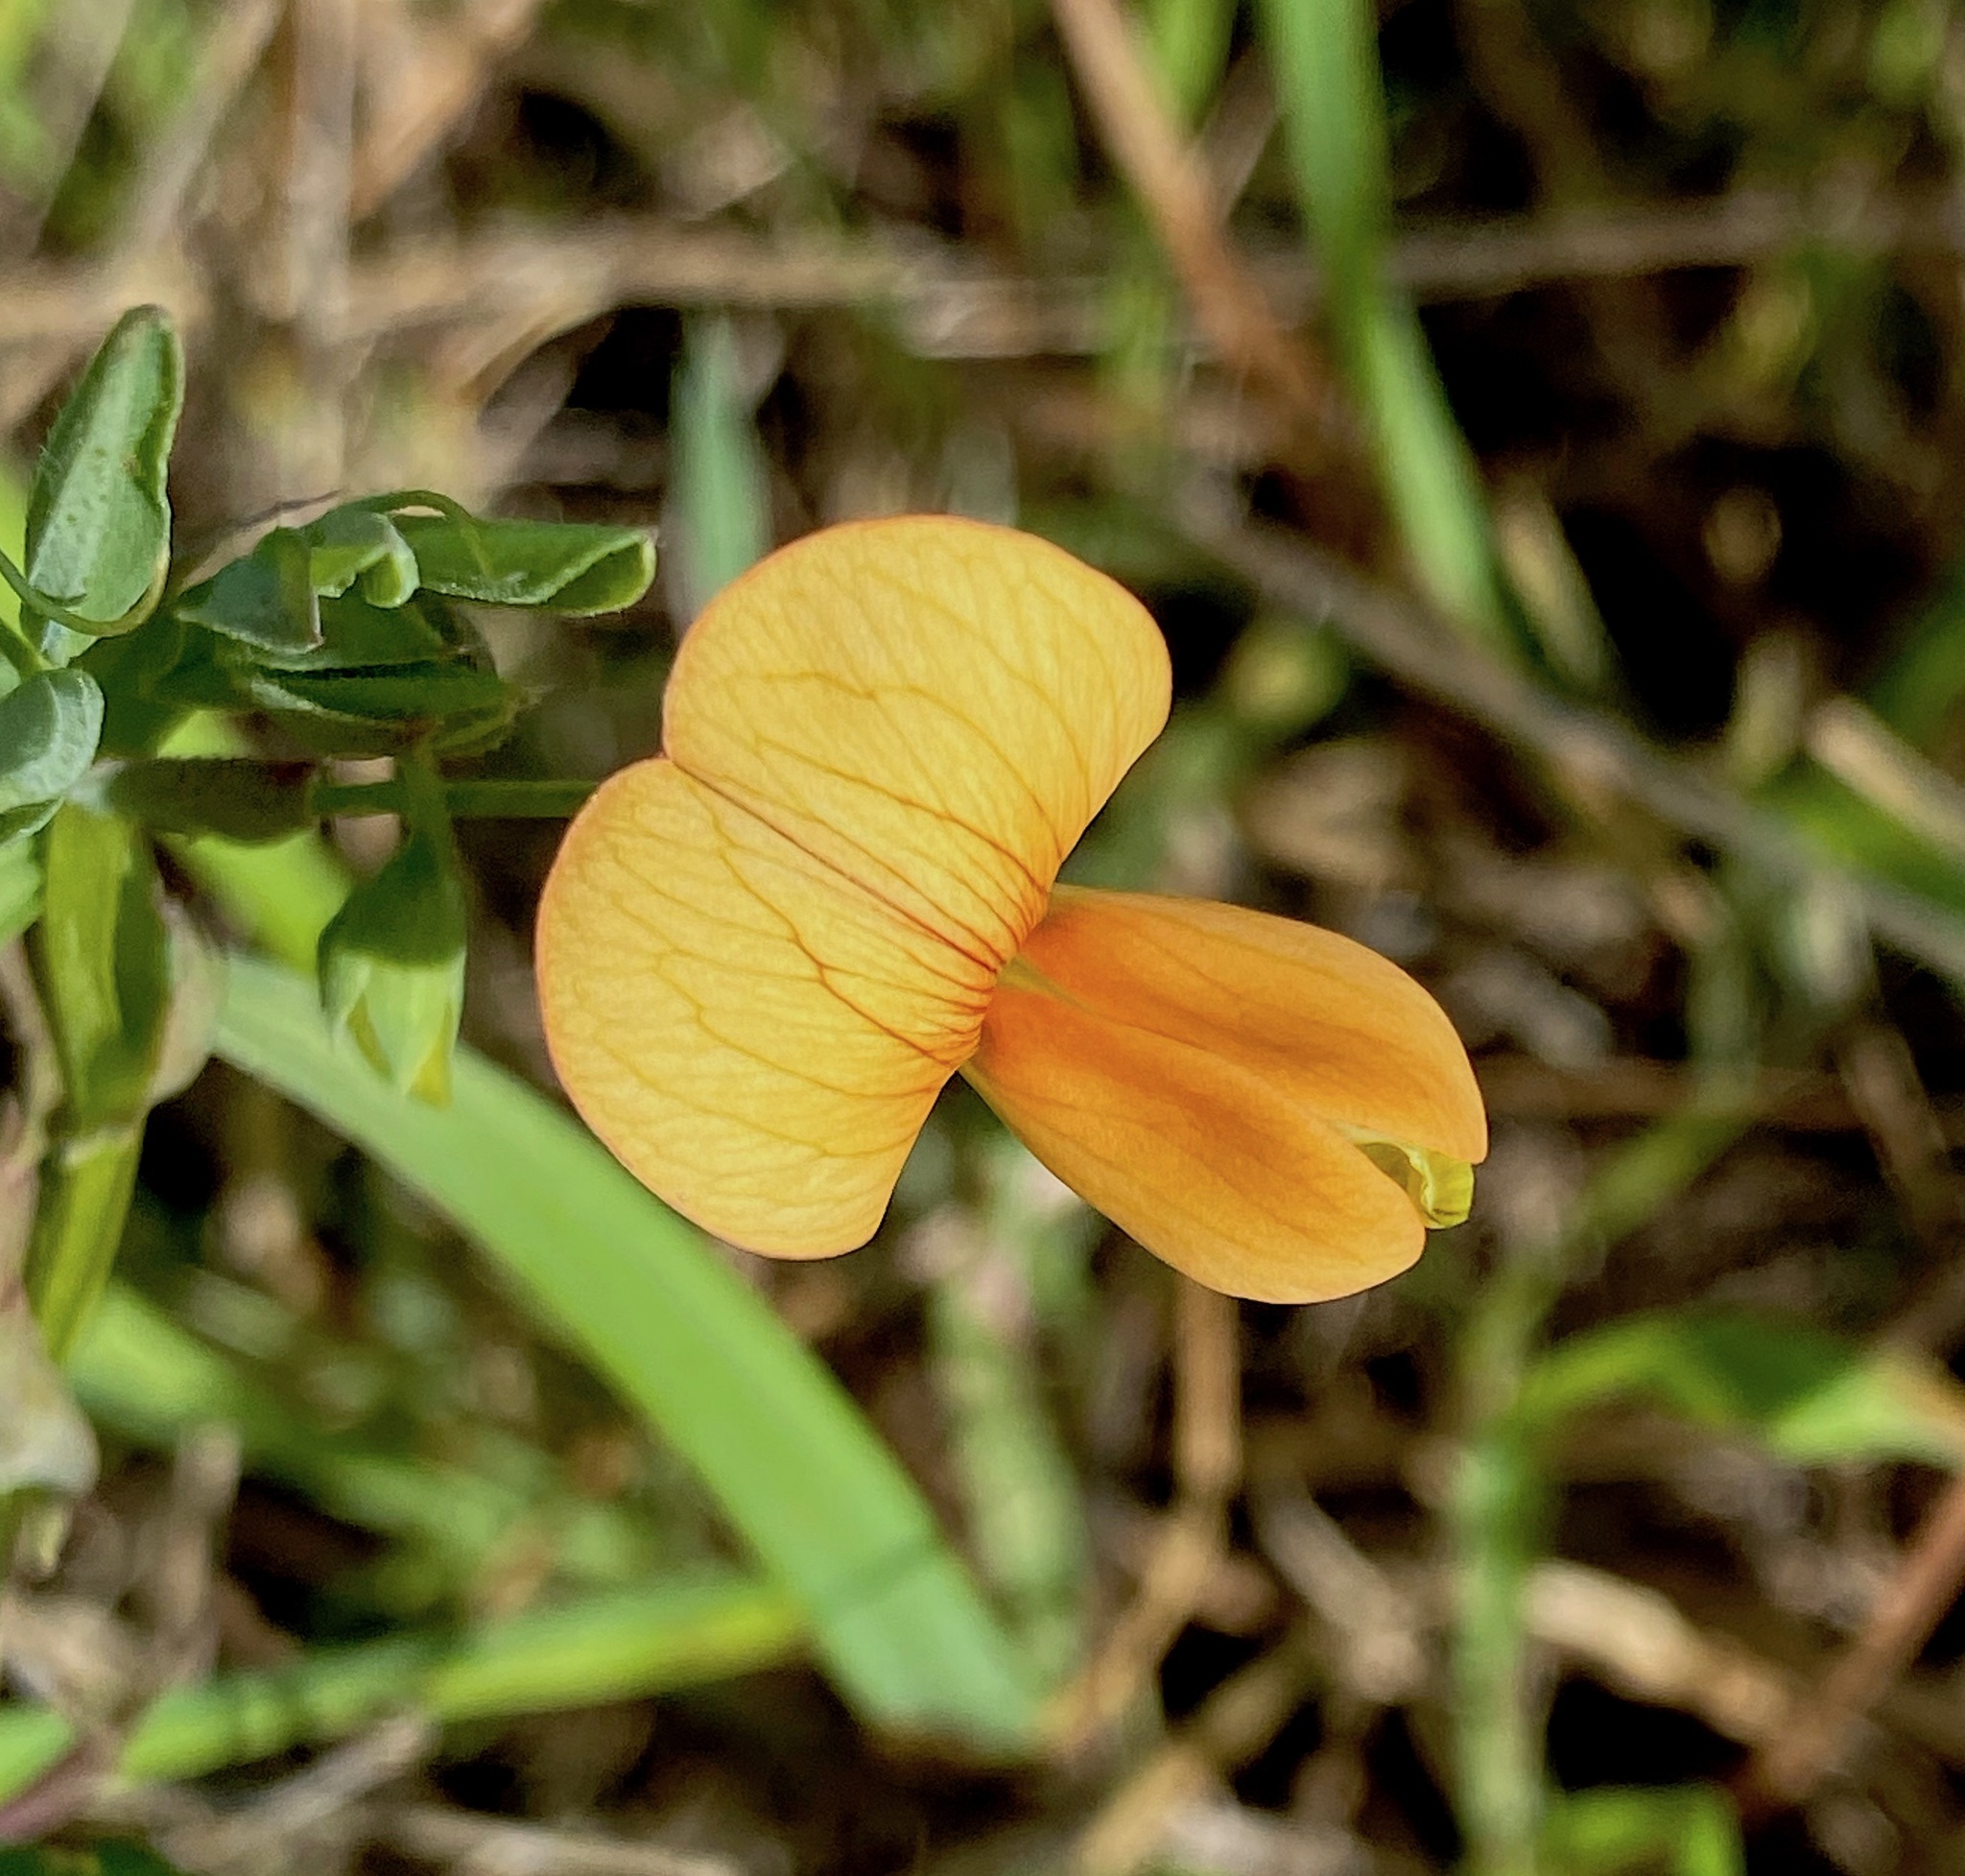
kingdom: Plantae
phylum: Tracheophyta
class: Magnoliopsida
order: Fabales
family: Fabaceae
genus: Lathyrus
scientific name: Lathyrus gorgoni
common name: Rare pea
